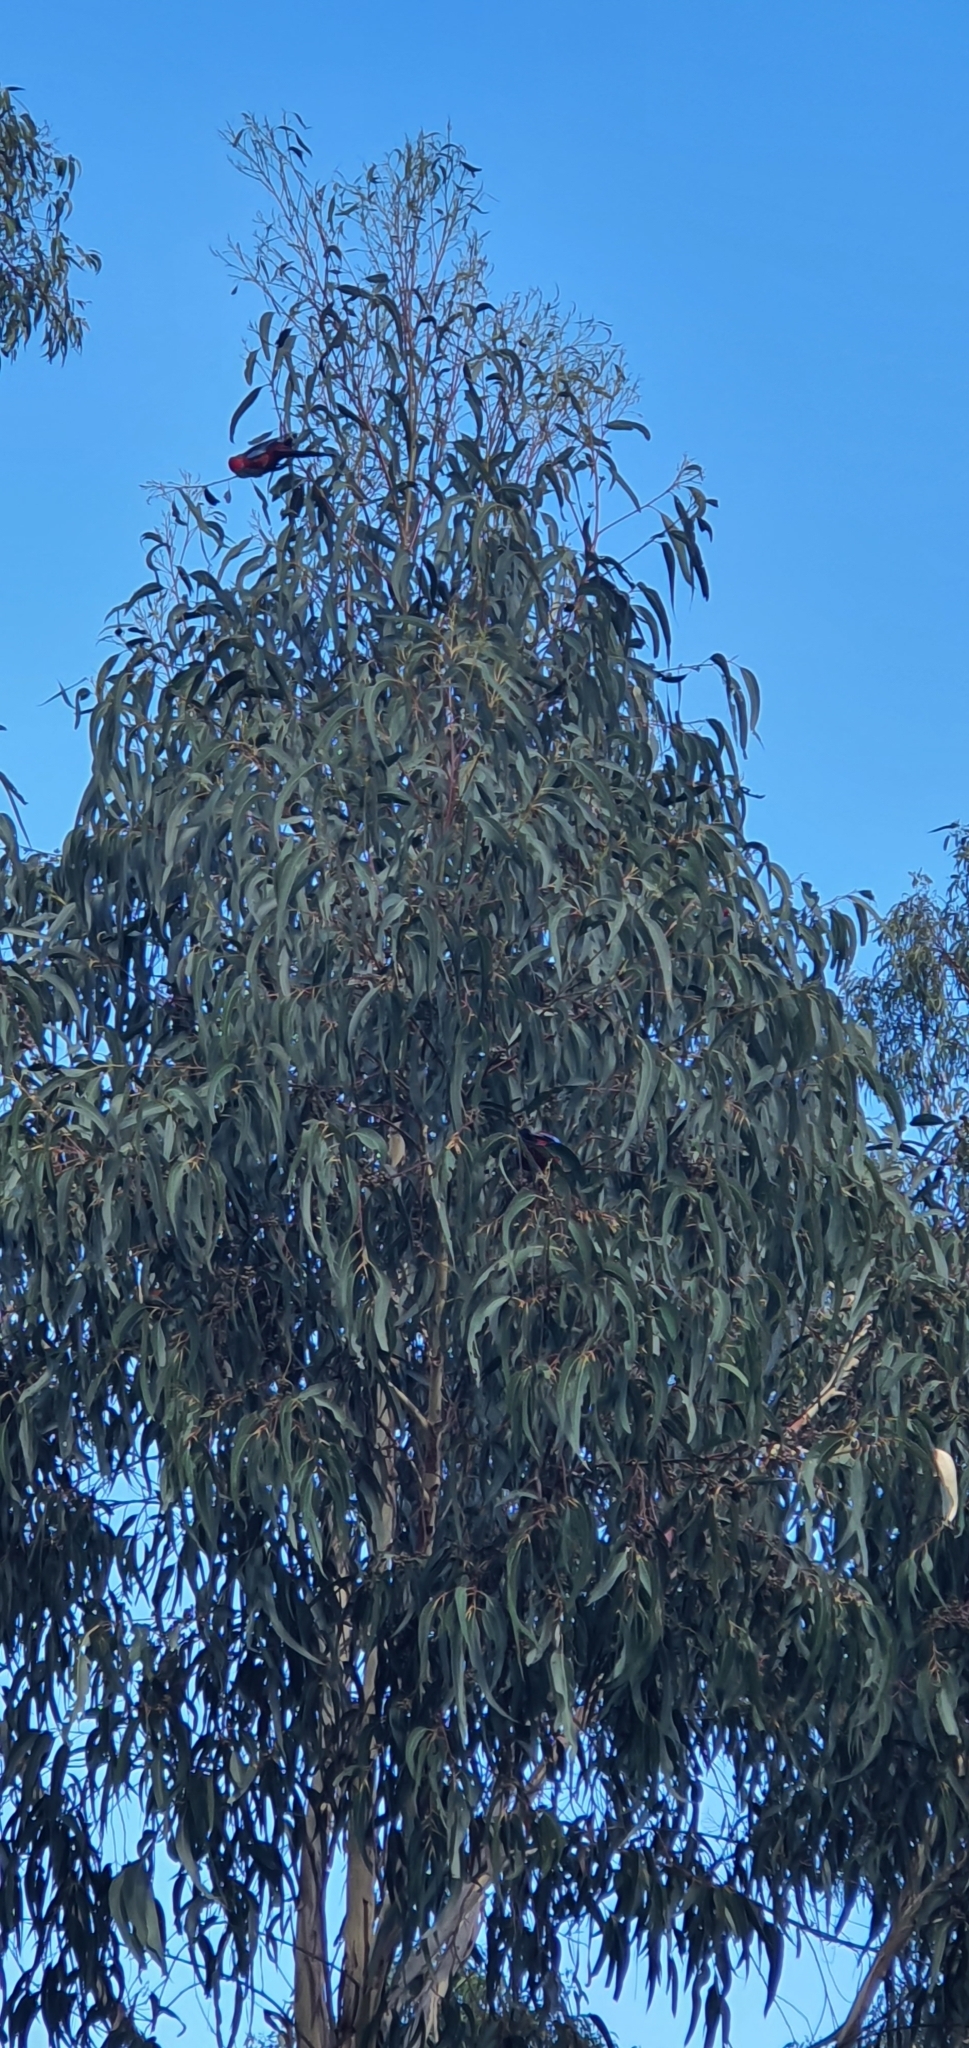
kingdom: Animalia
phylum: Chordata
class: Aves
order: Psittaciformes
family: Psittacidae
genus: Platycercus
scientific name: Platycercus elegans
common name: Crimson rosella
